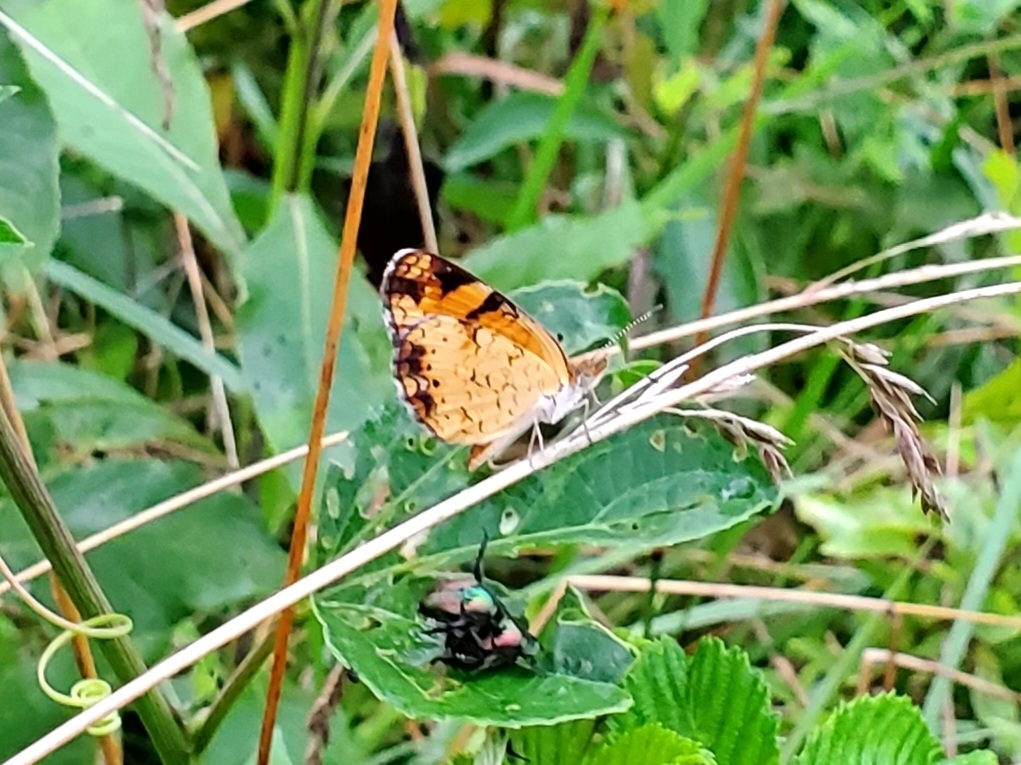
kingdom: Animalia
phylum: Arthropoda
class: Insecta
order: Lepidoptera
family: Nymphalidae
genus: Phyciodes
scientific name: Phyciodes tharos
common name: Pearl crescent
